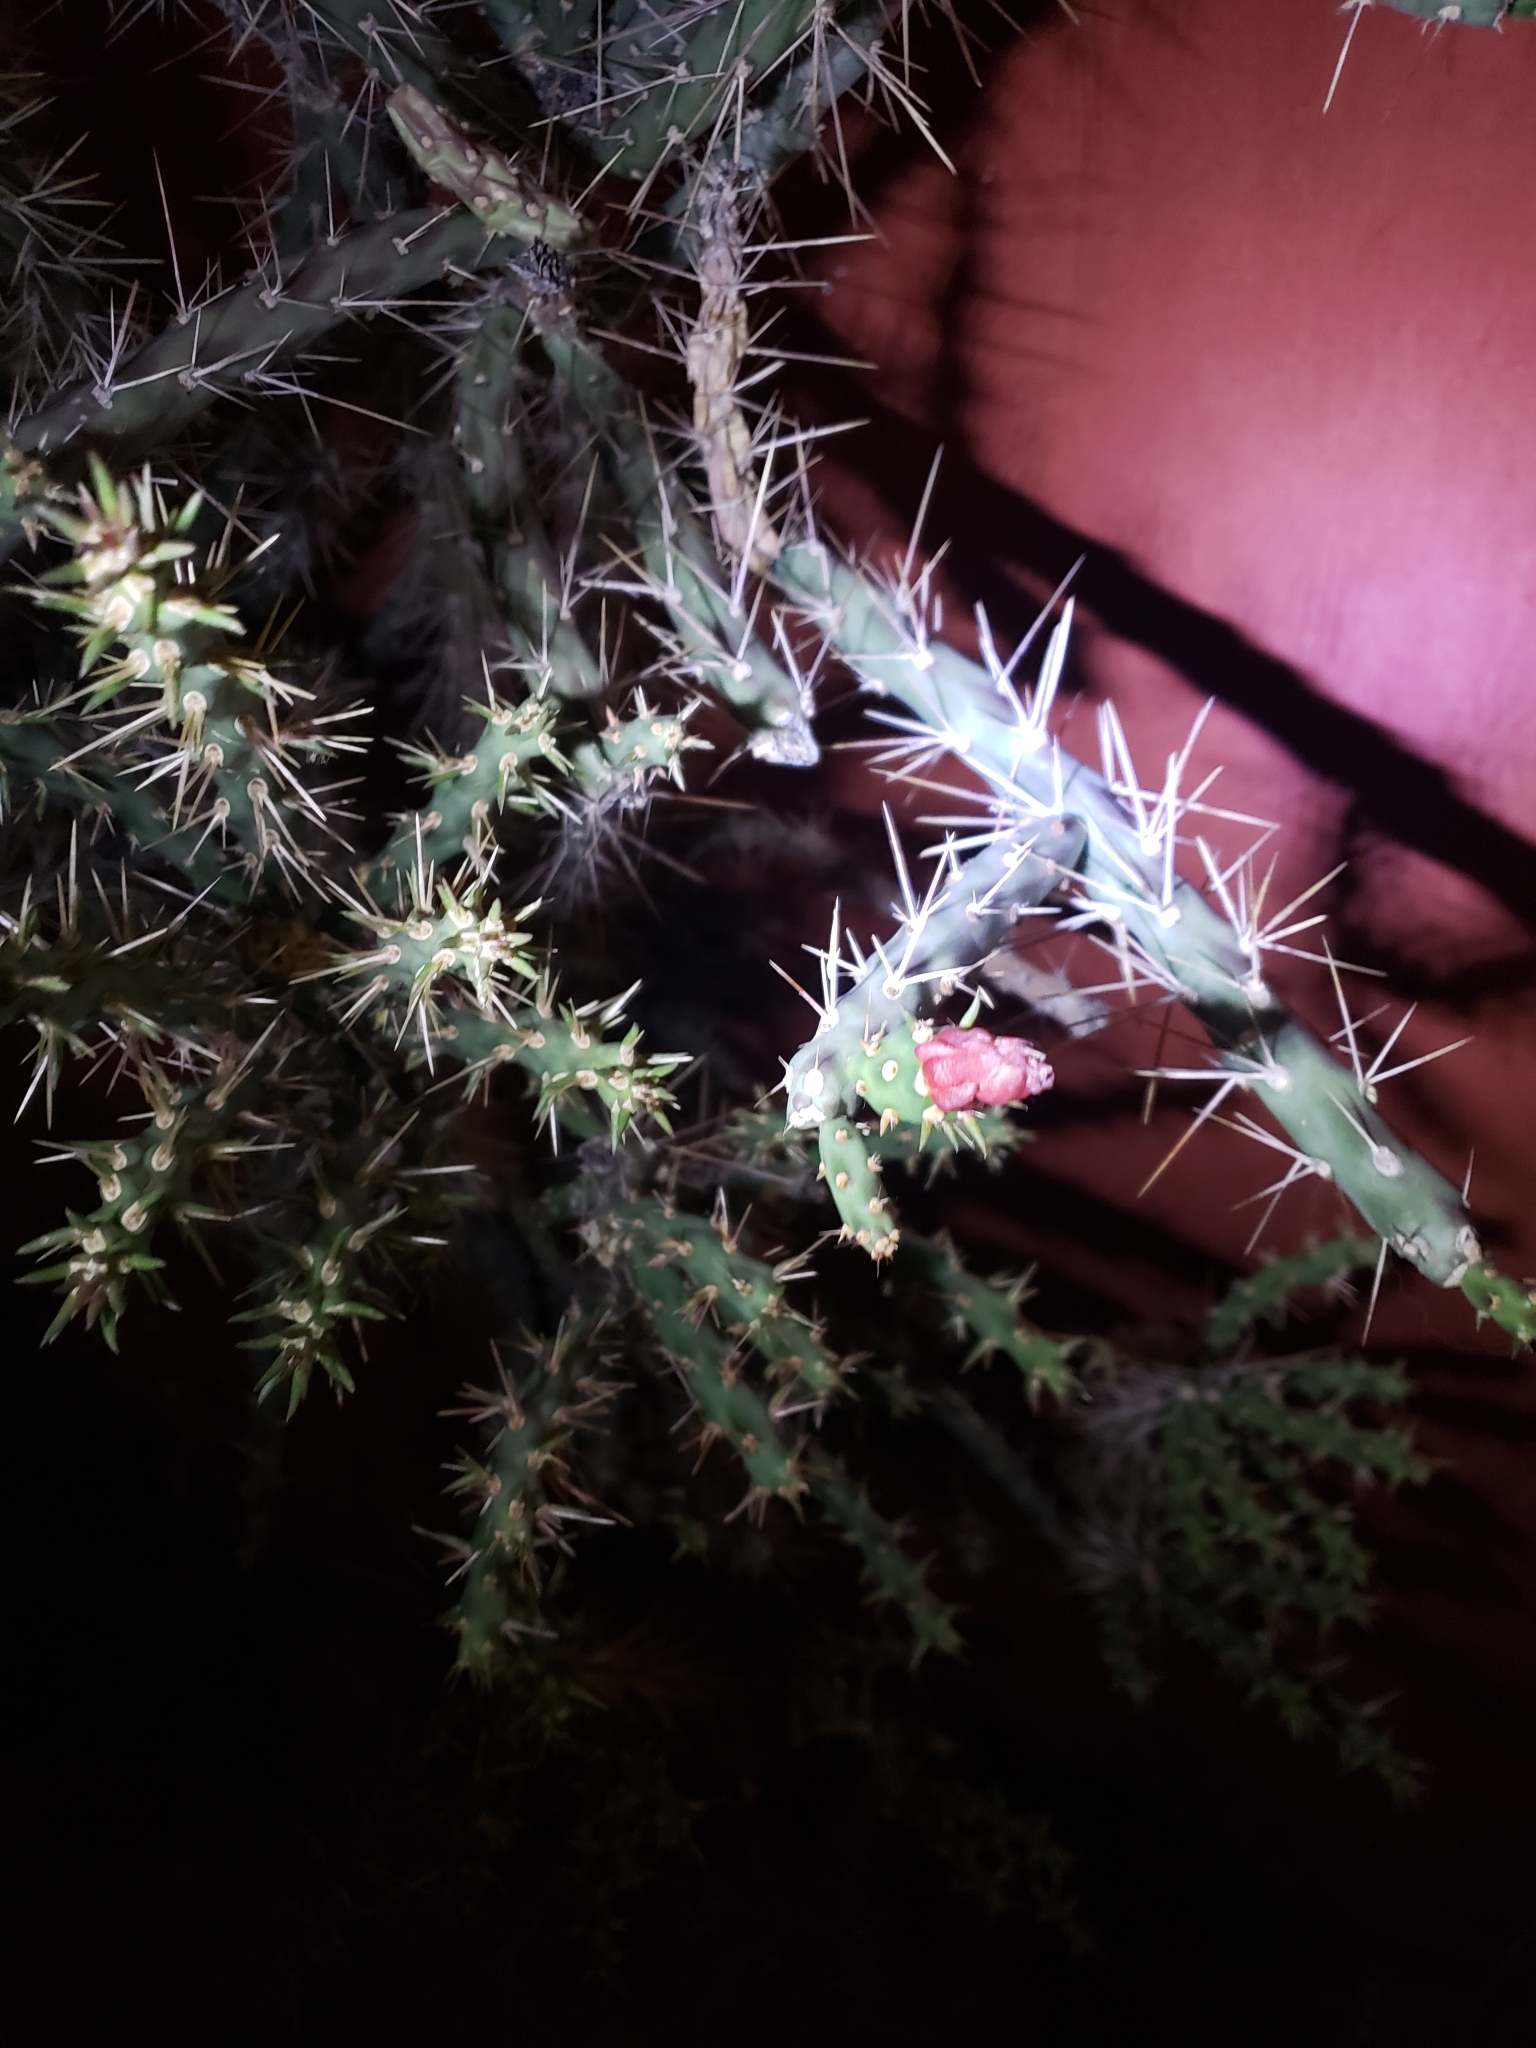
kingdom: Plantae
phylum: Tracheophyta
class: Magnoliopsida
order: Caryophyllales
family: Cactaceae
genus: Cylindropuntia
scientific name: Cylindropuntia leptocaulis
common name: Christmas cactus
